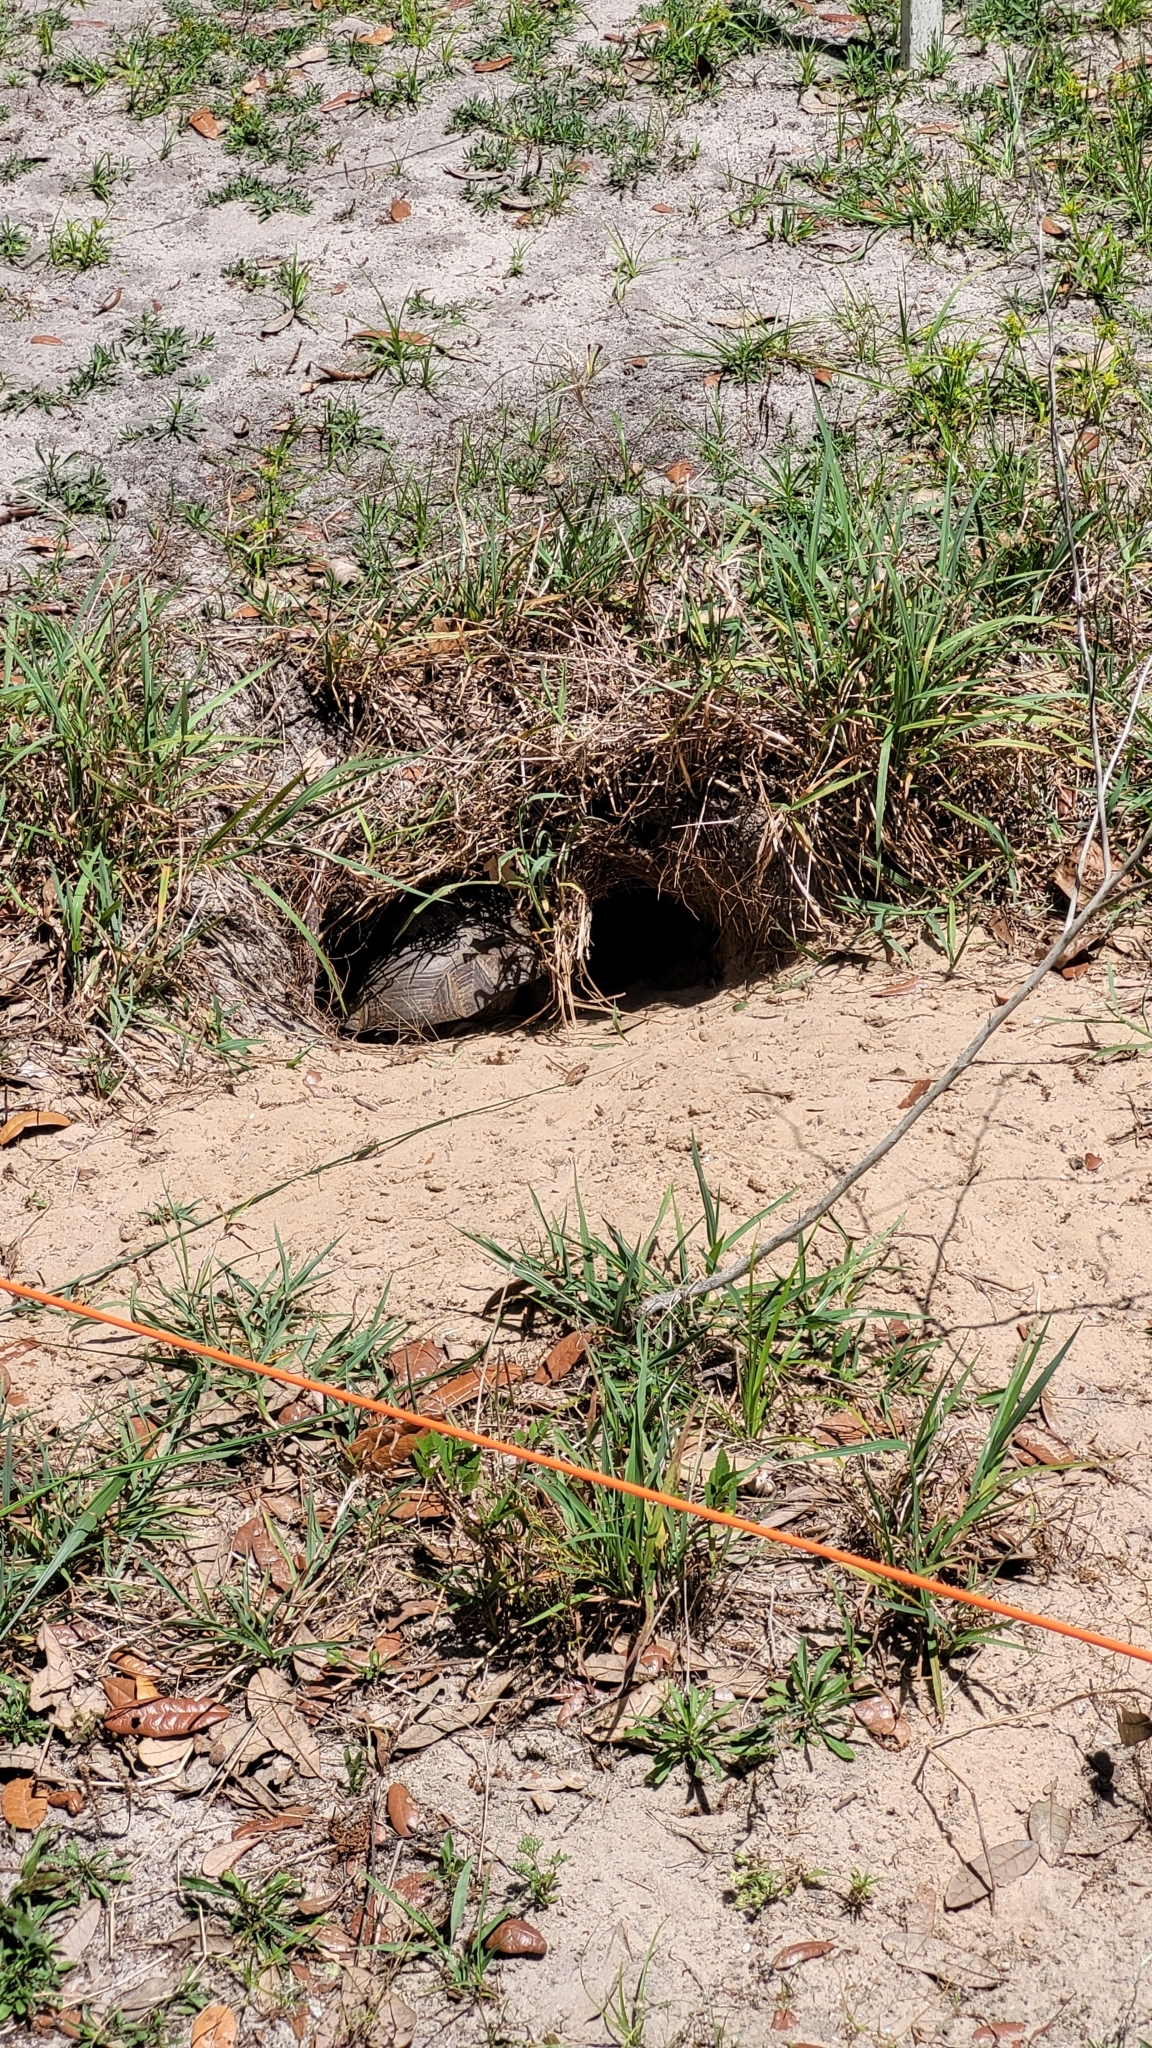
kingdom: Animalia
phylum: Chordata
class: Testudines
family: Testudinidae
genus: Gopherus
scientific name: Gopherus polyphemus
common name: Florida gopher tortoise
